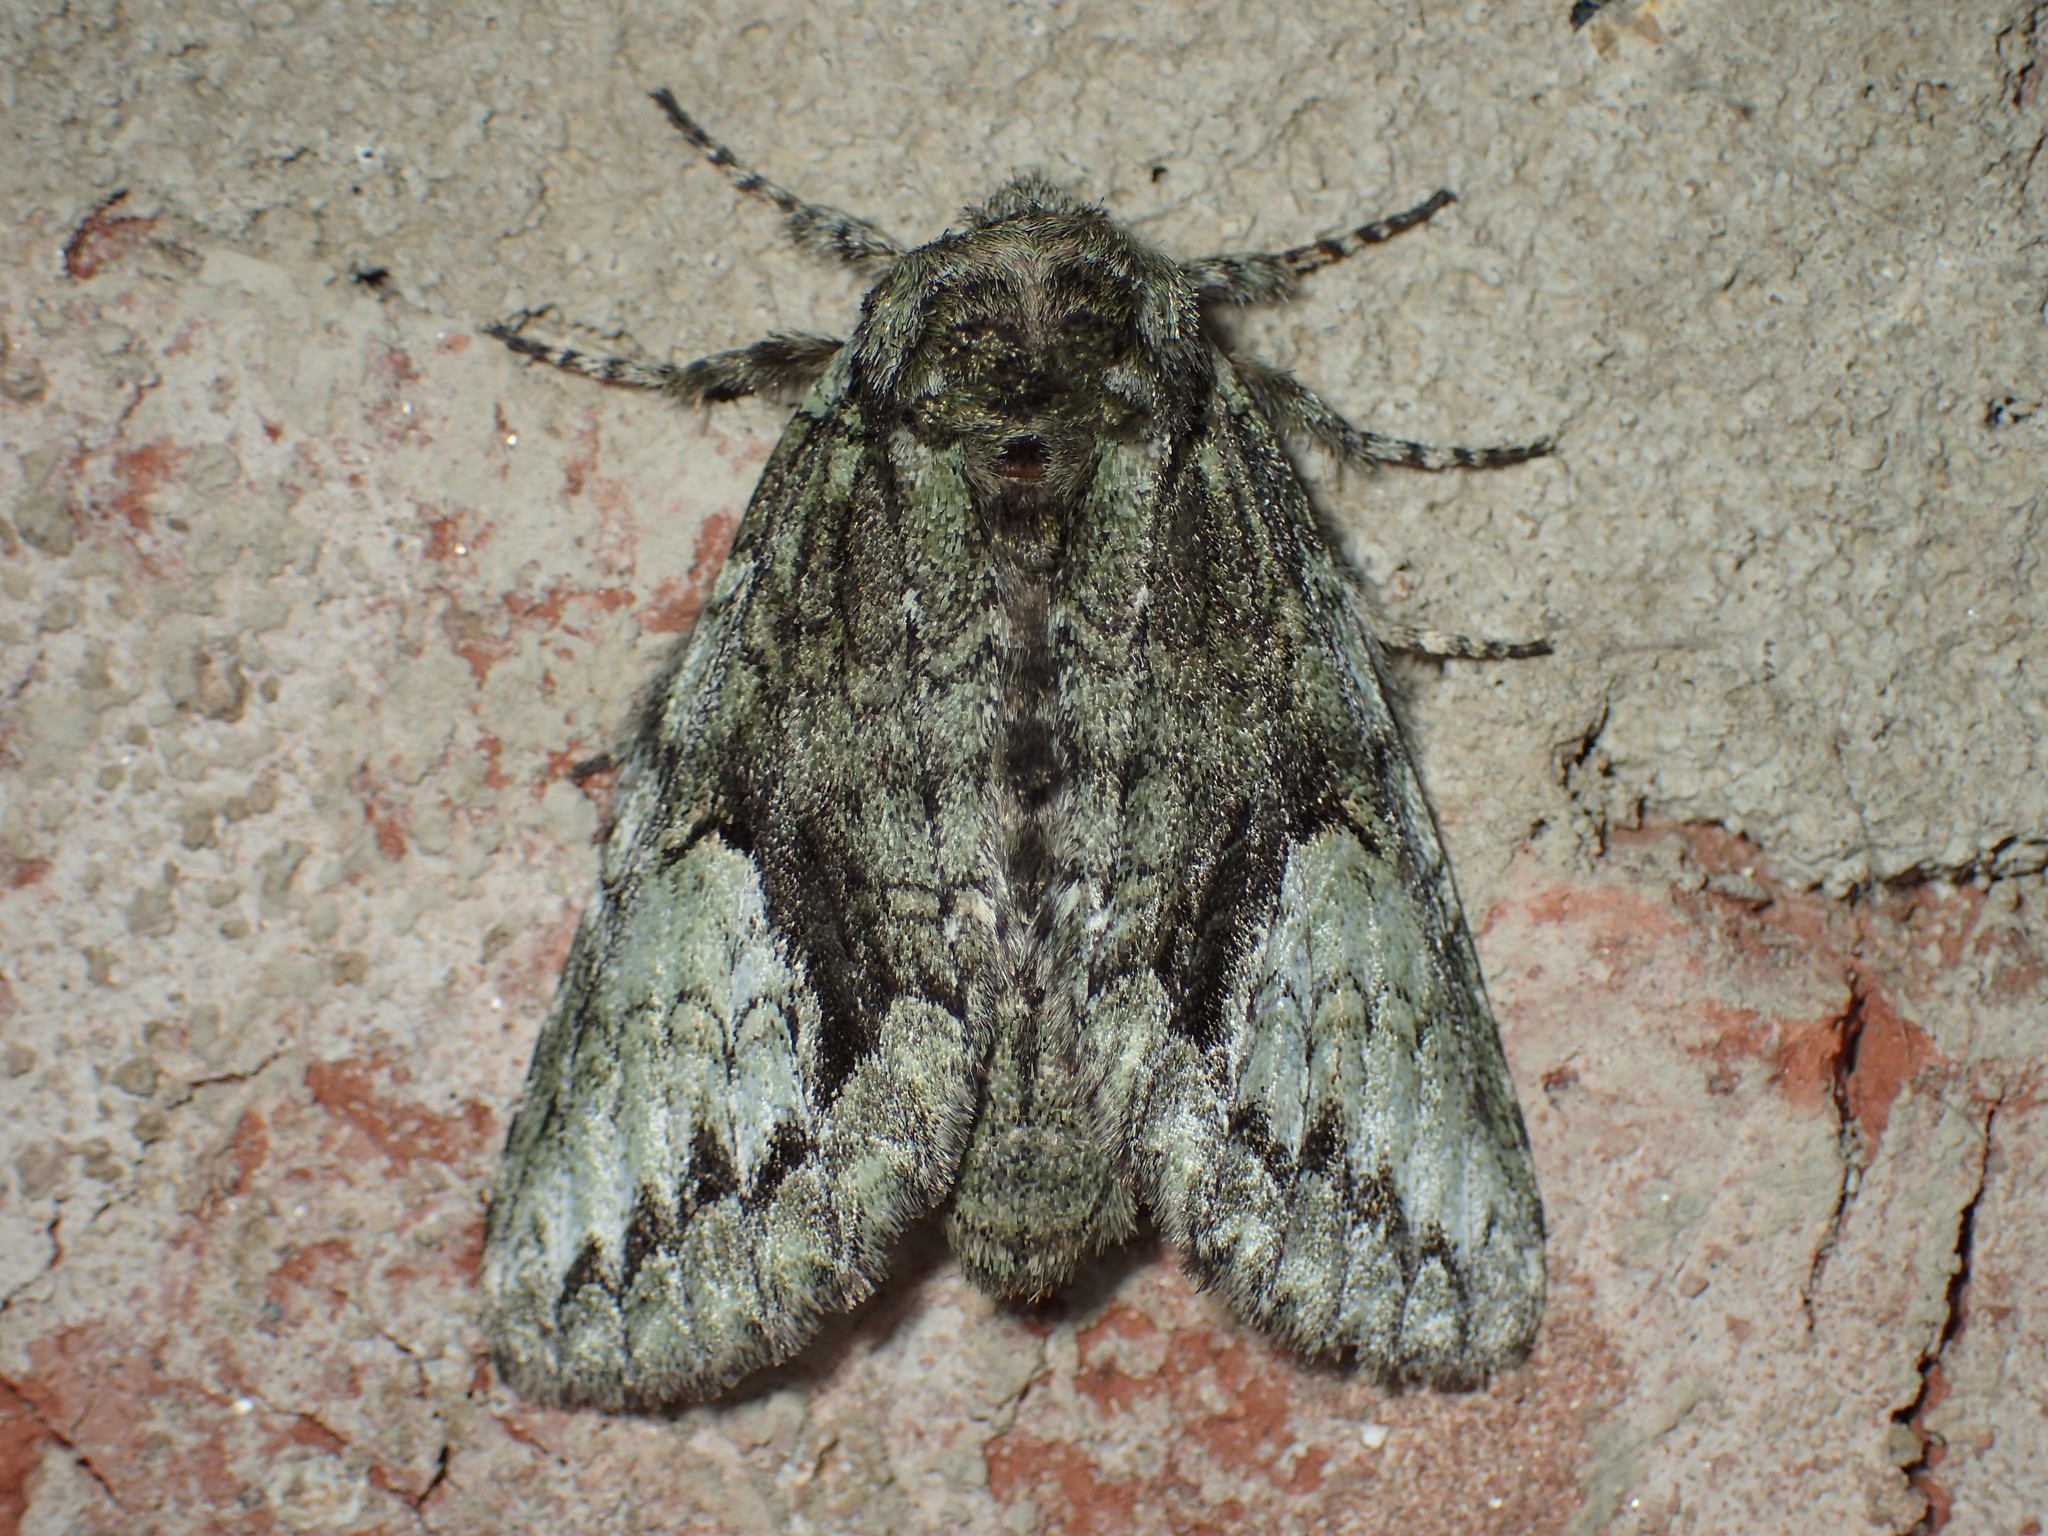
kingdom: Animalia
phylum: Arthropoda
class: Insecta
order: Lepidoptera
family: Notodontidae
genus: Heterocampa
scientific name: Heterocampa
